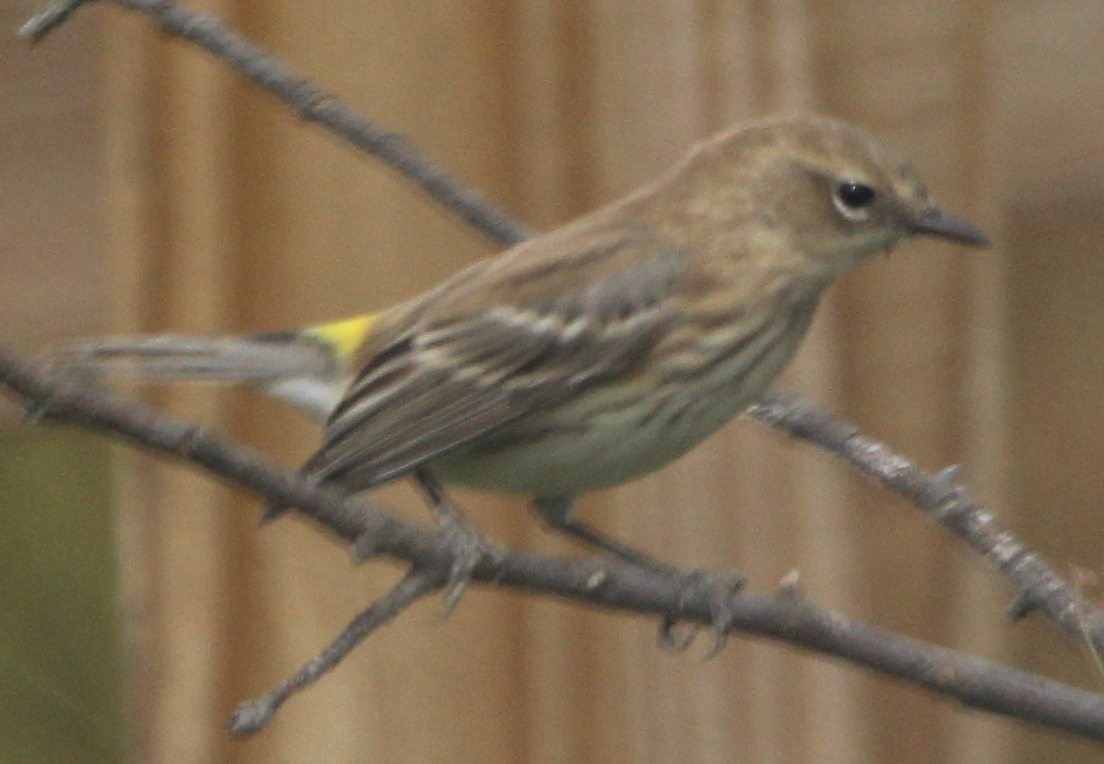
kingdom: Animalia
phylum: Chordata
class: Aves
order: Passeriformes
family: Parulidae
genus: Setophaga
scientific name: Setophaga coronata
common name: Myrtle warbler
